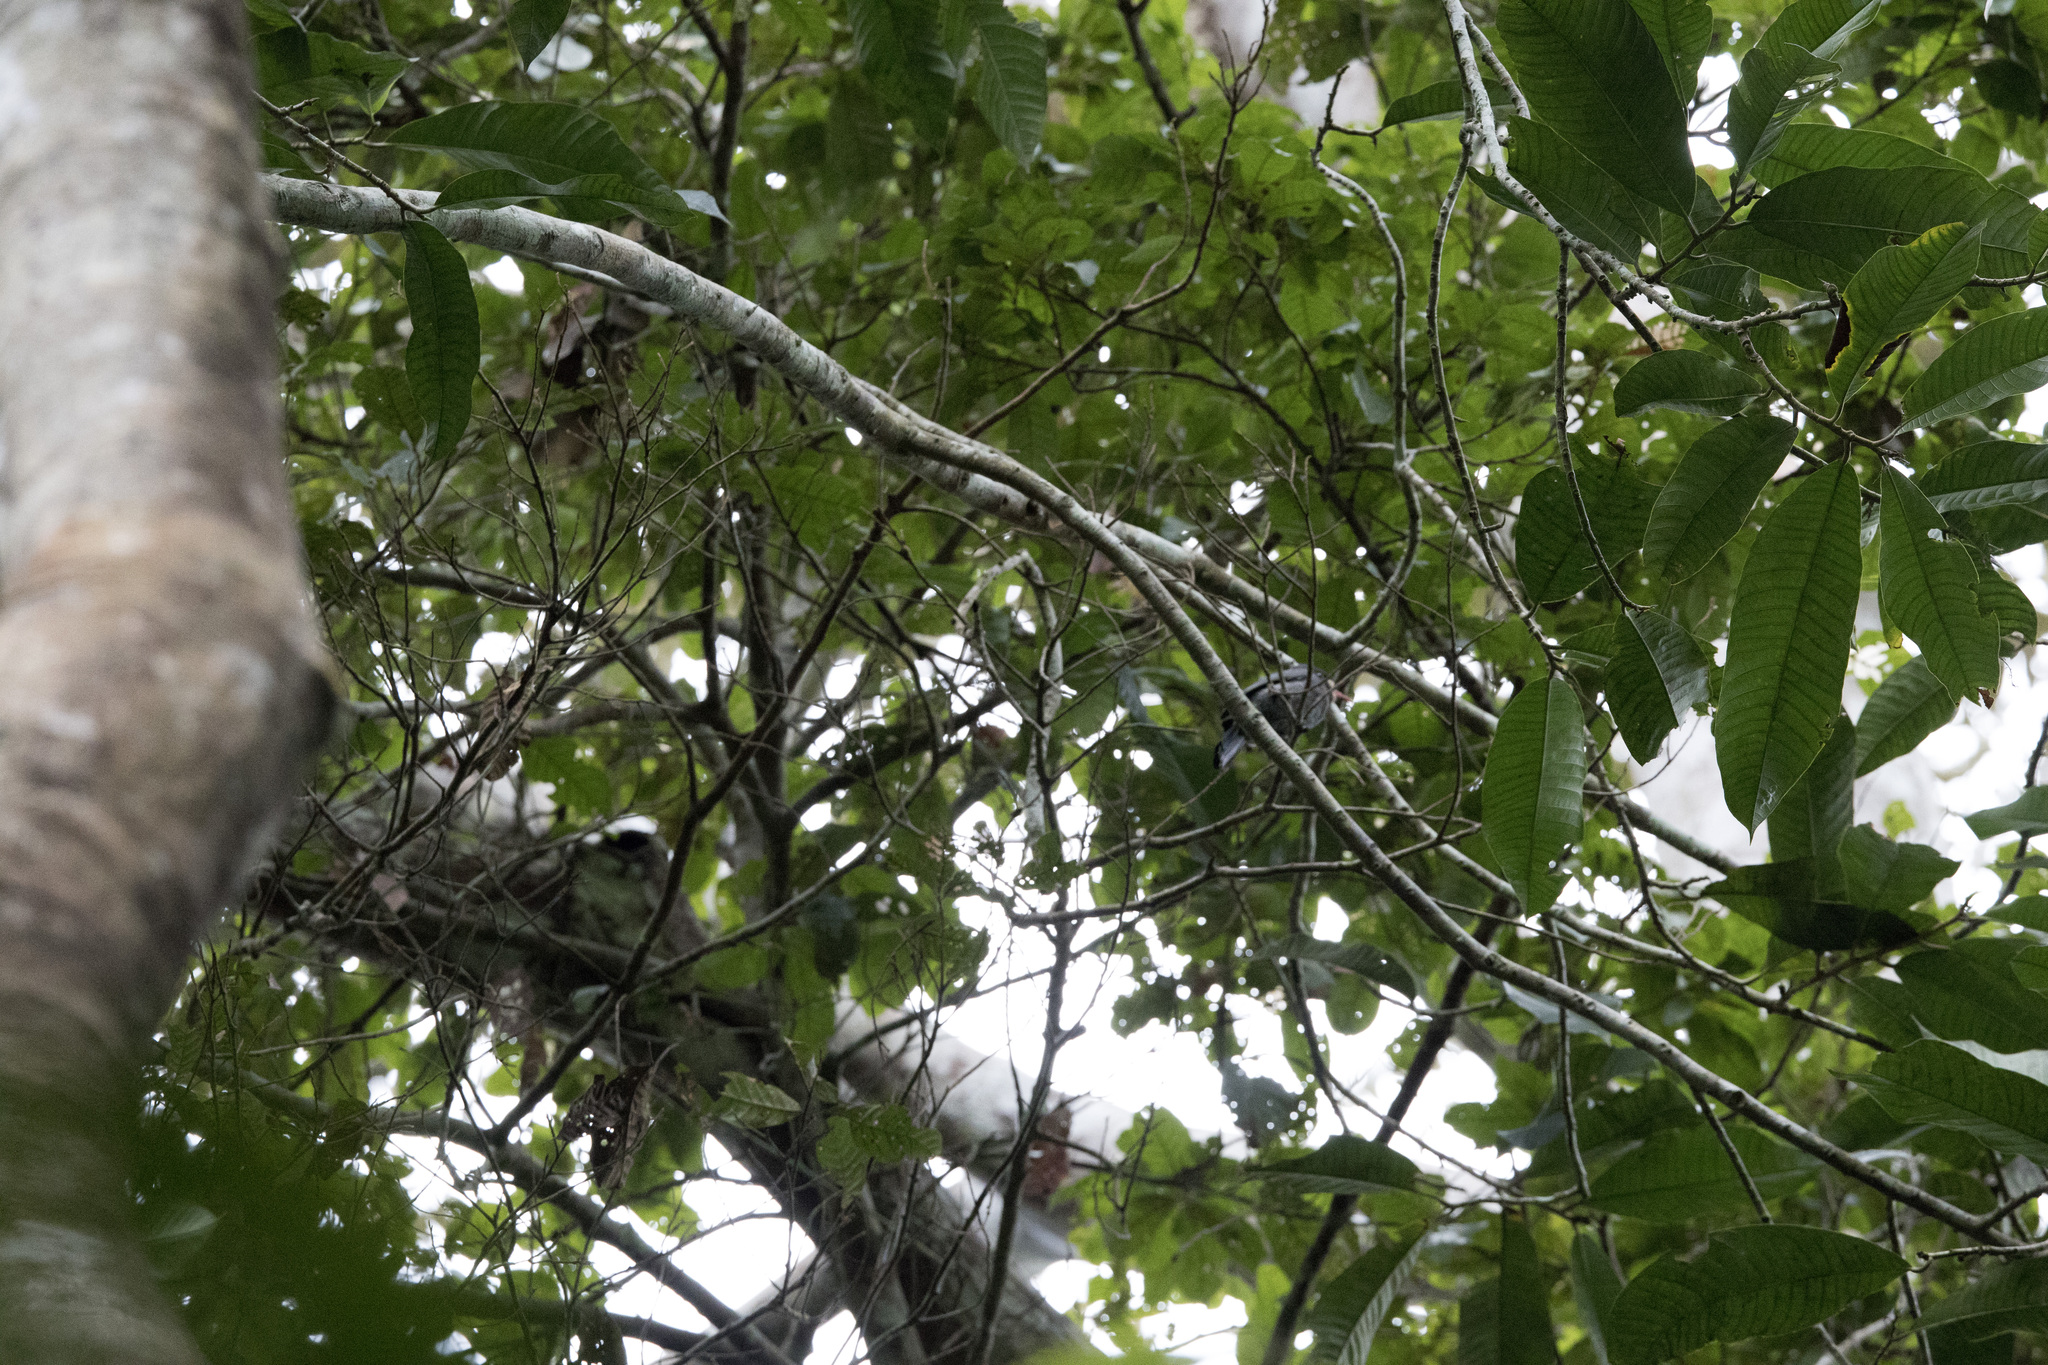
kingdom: Animalia
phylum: Chordata
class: Aves
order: Piciformes
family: Bucconidae
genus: Monasa
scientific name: Monasa morphoeus
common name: White-fronted nunbird
